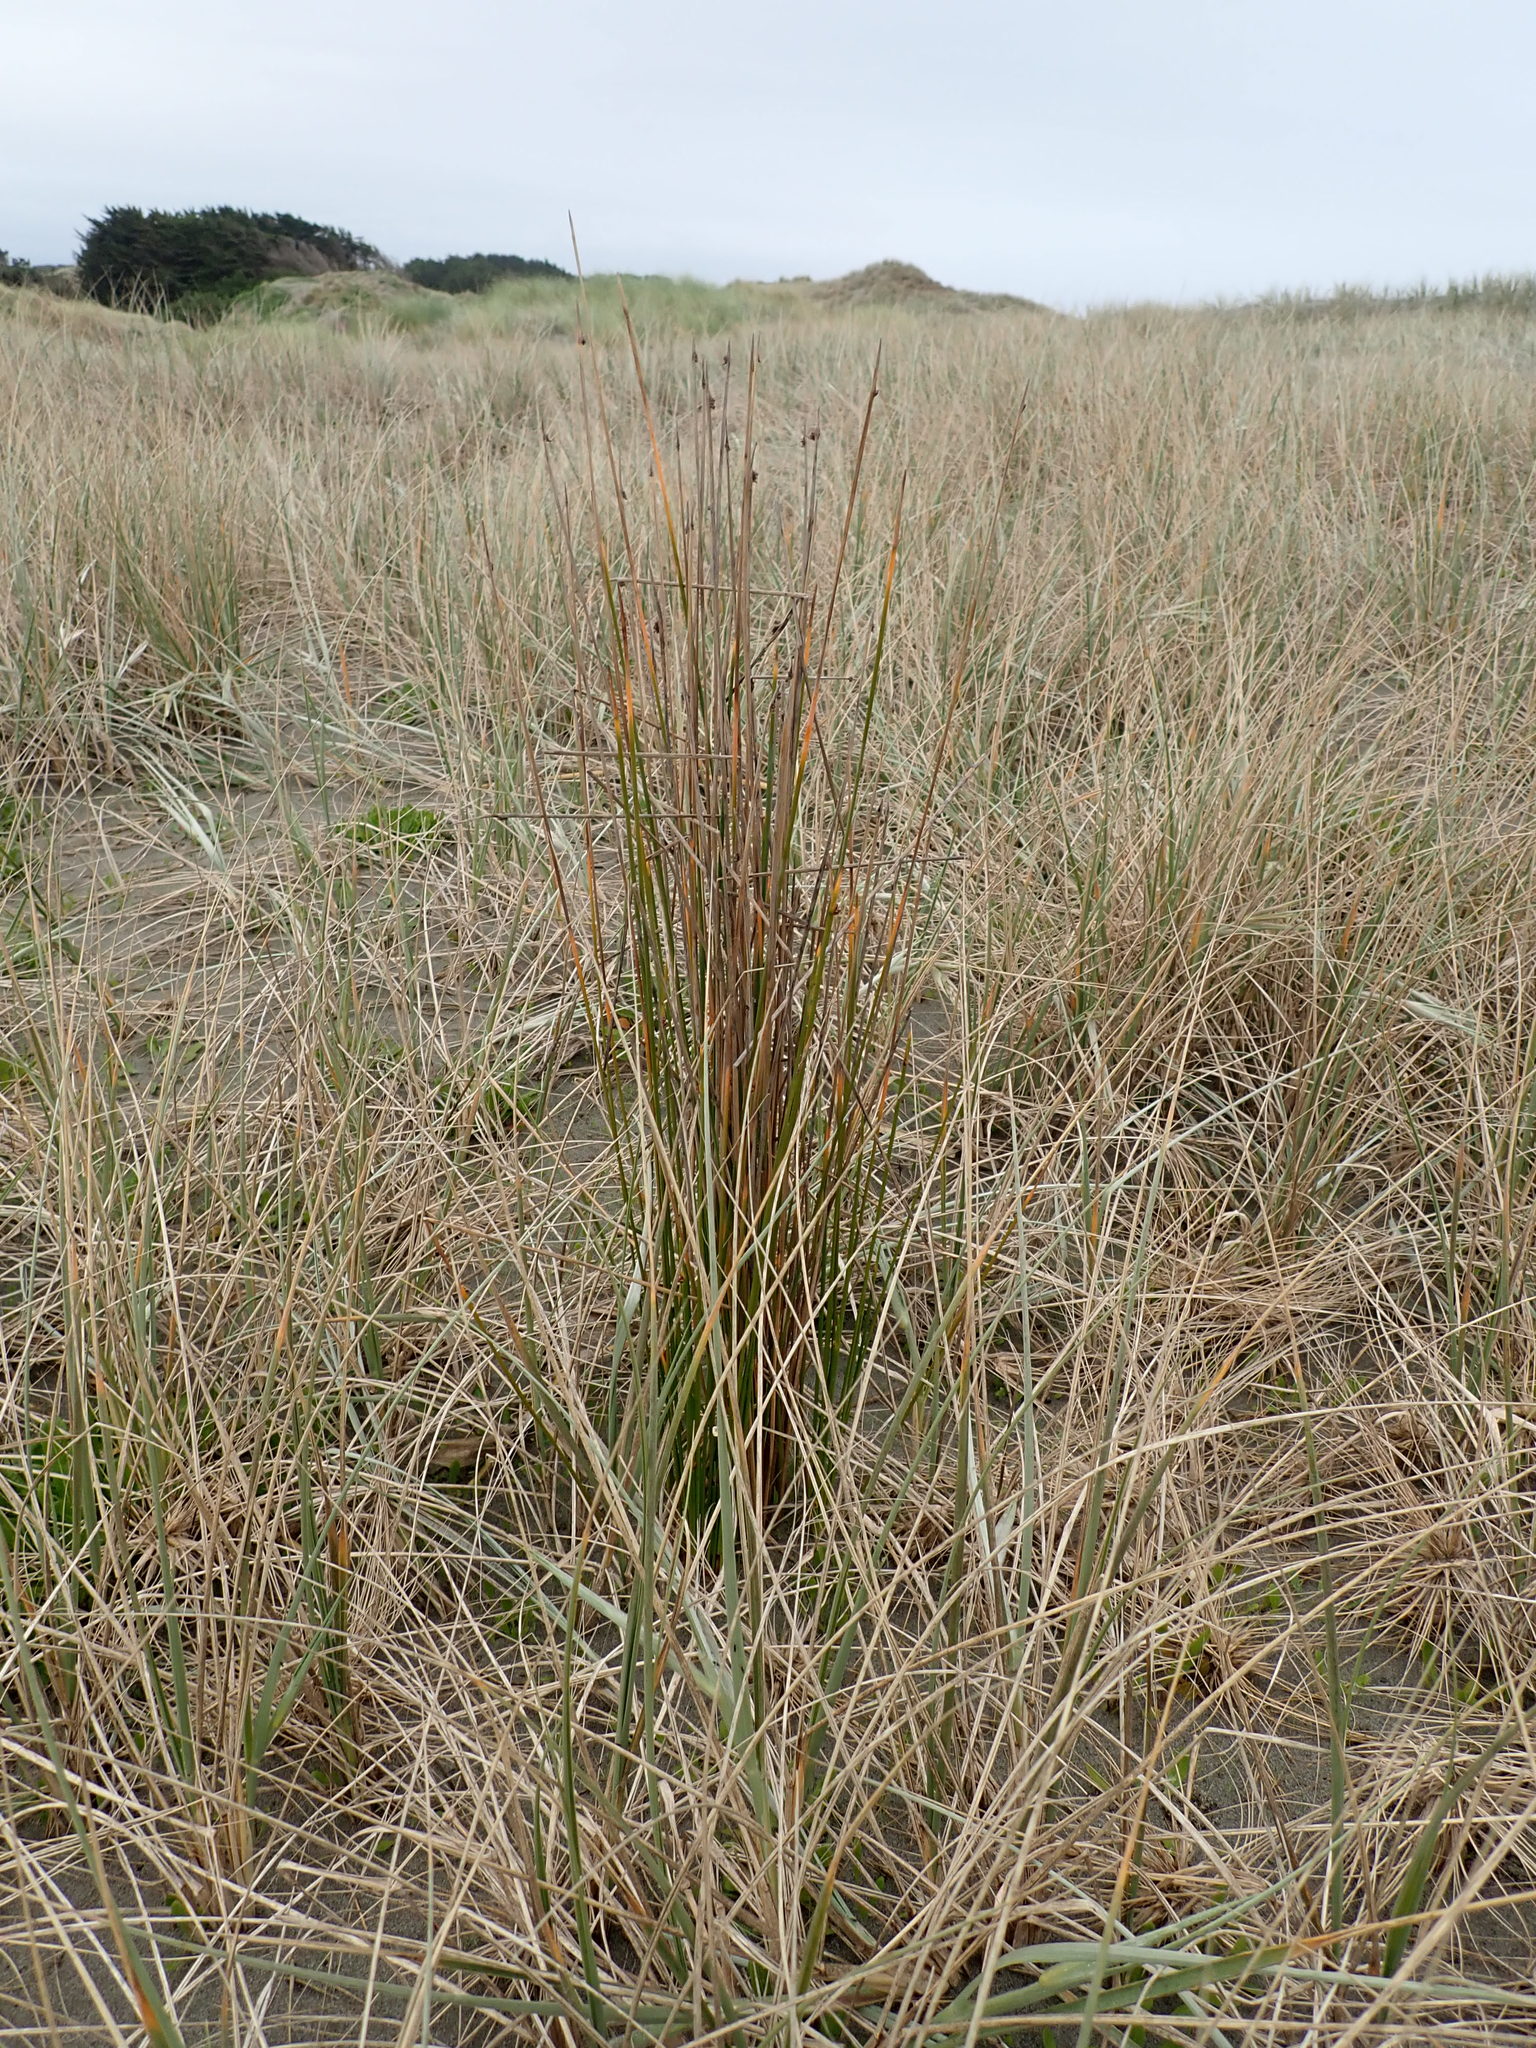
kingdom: Plantae
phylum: Tracheophyta
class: Liliopsida
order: Poales
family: Cyperaceae
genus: Ficinia
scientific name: Ficinia nodosa
